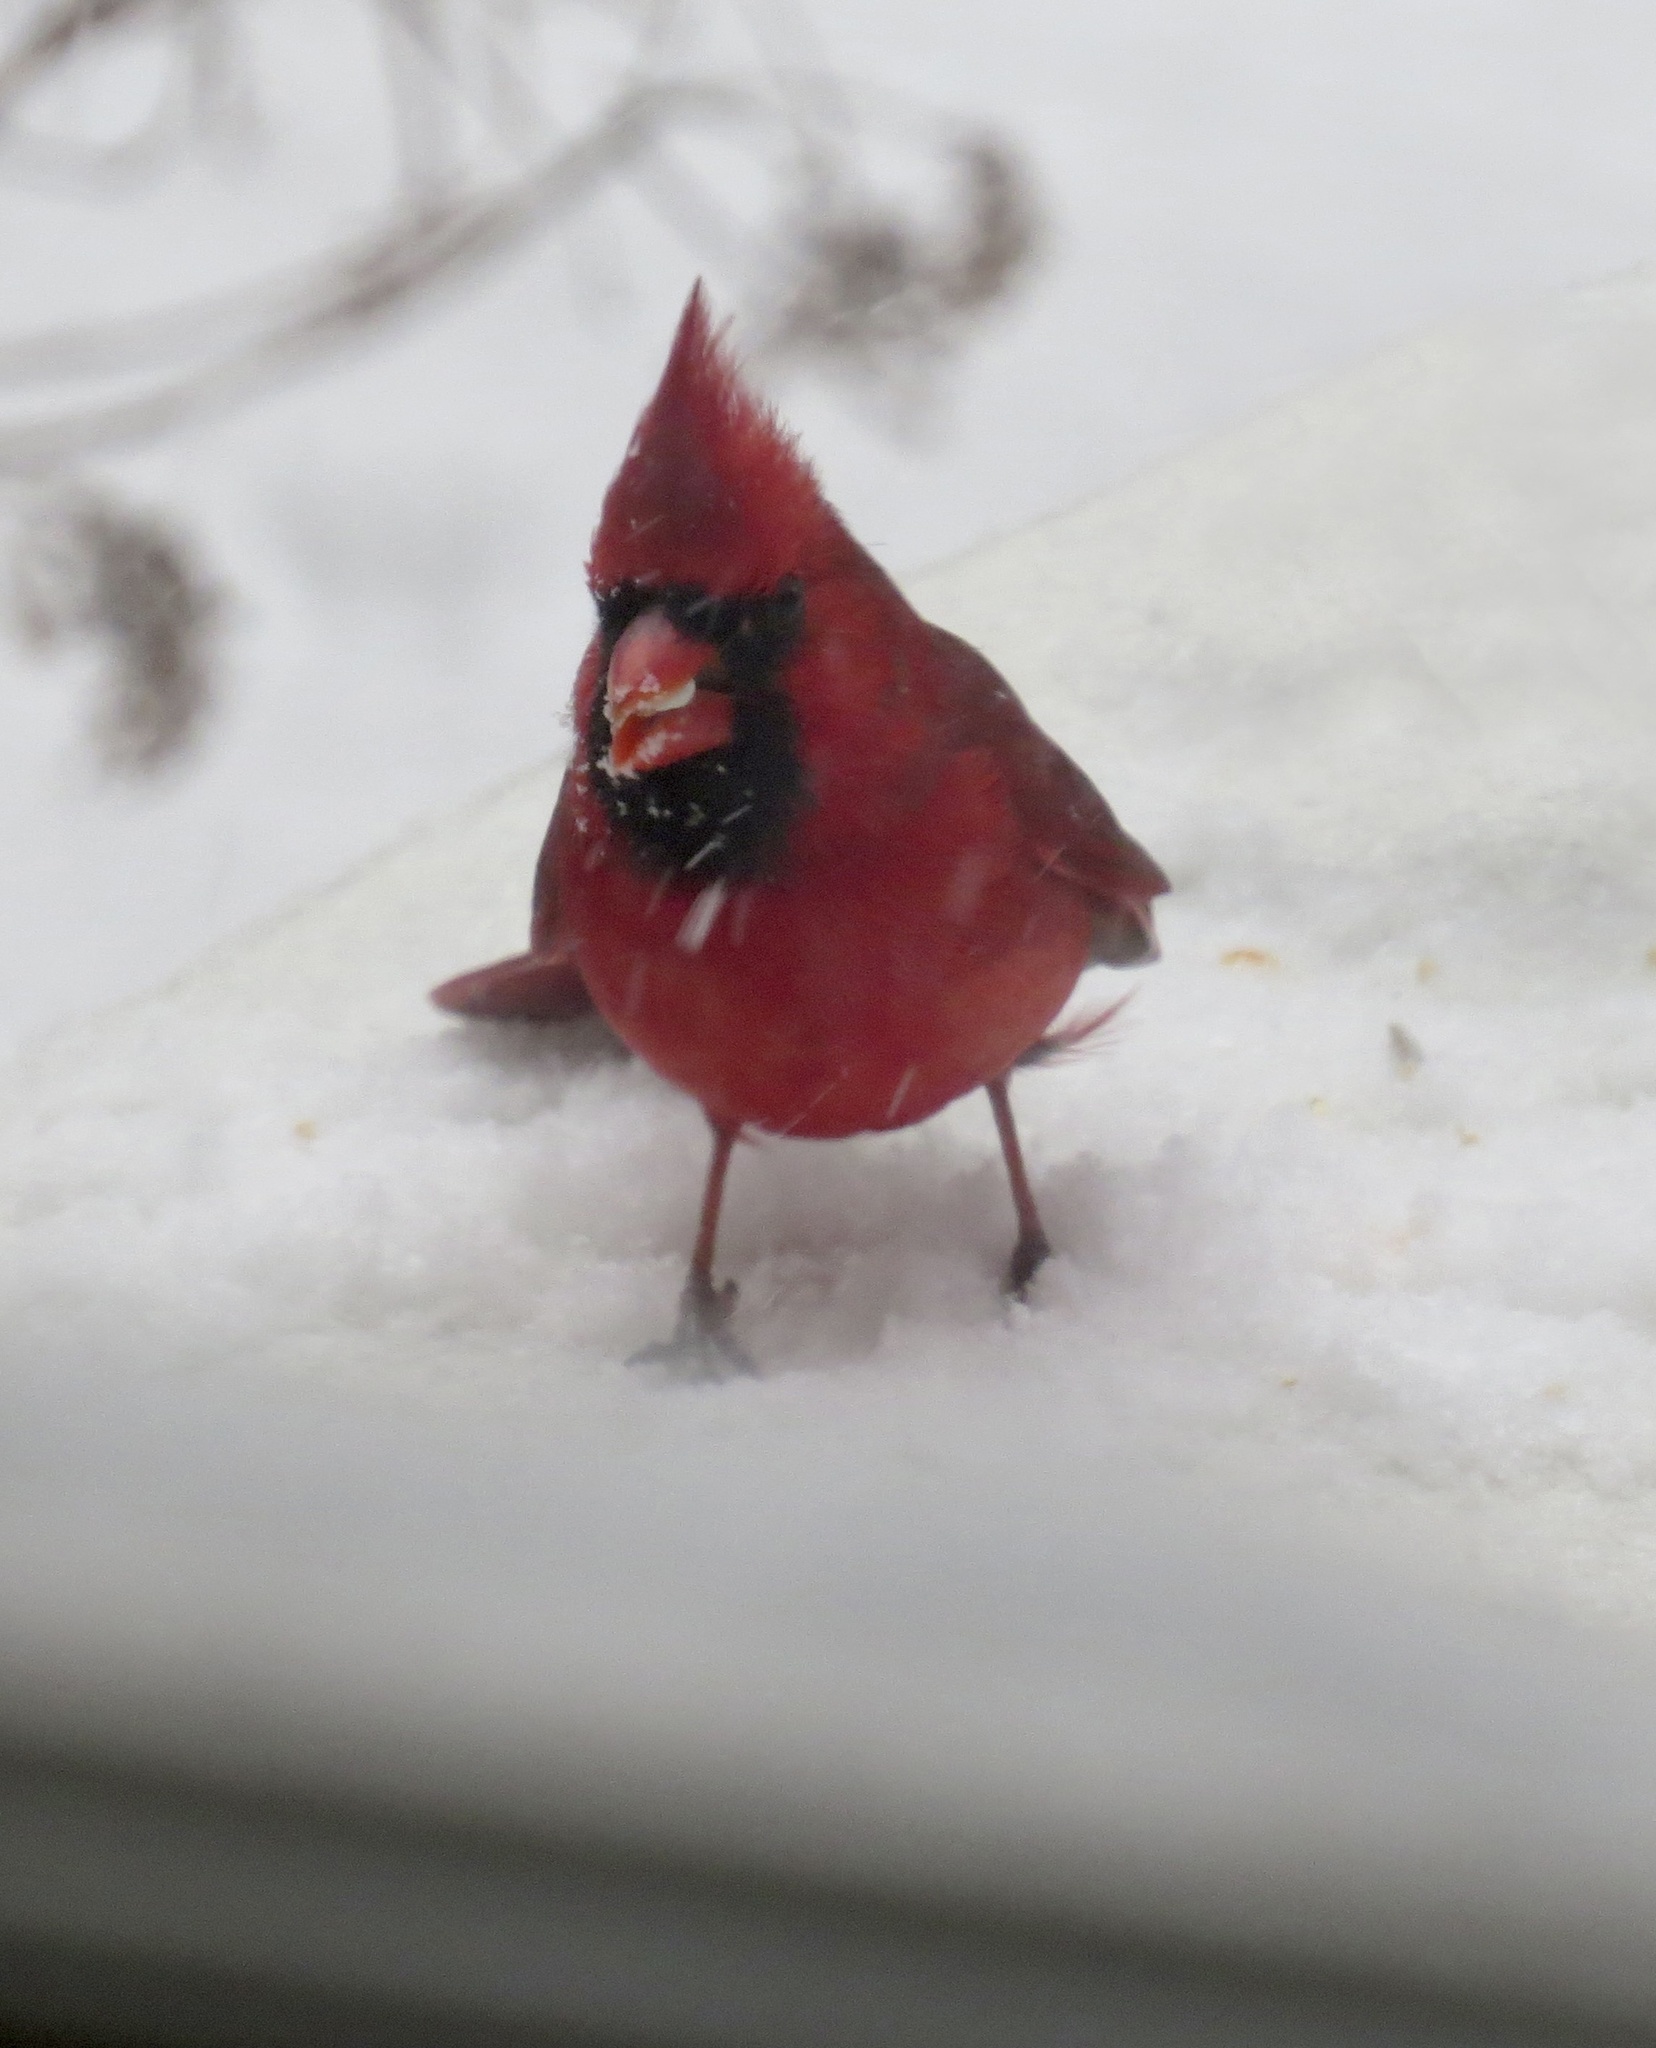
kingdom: Animalia
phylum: Chordata
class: Aves
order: Passeriformes
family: Cardinalidae
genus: Cardinalis
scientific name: Cardinalis cardinalis
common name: Northern cardinal
